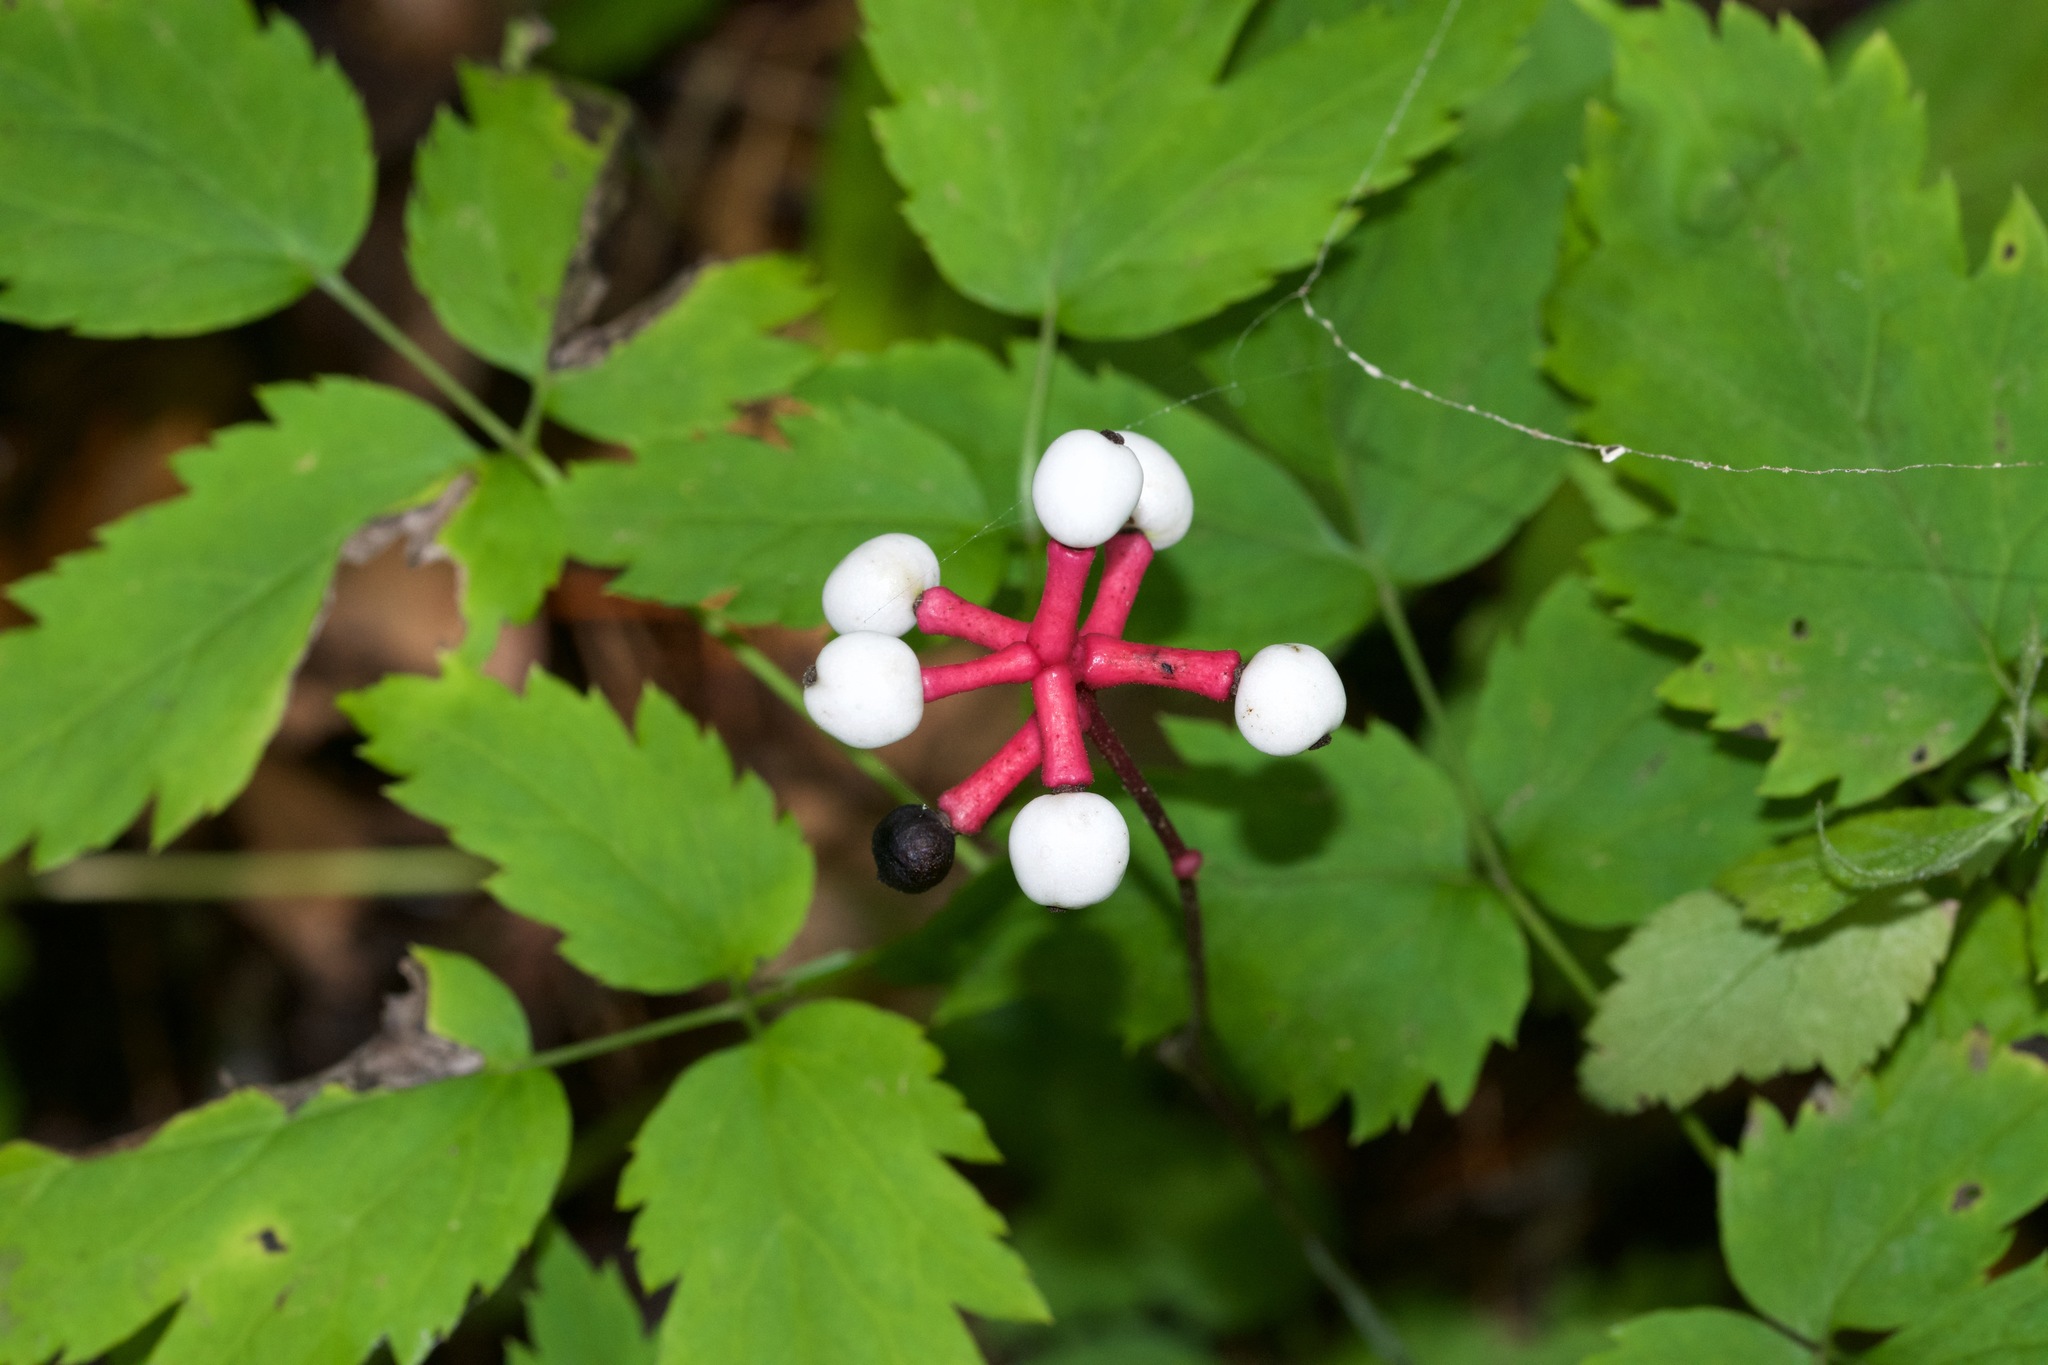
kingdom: Plantae
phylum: Tracheophyta
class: Magnoliopsida
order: Ranunculales
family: Ranunculaceae
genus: Actaea
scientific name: Actaea pachypoda
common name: Doll's-eyes
